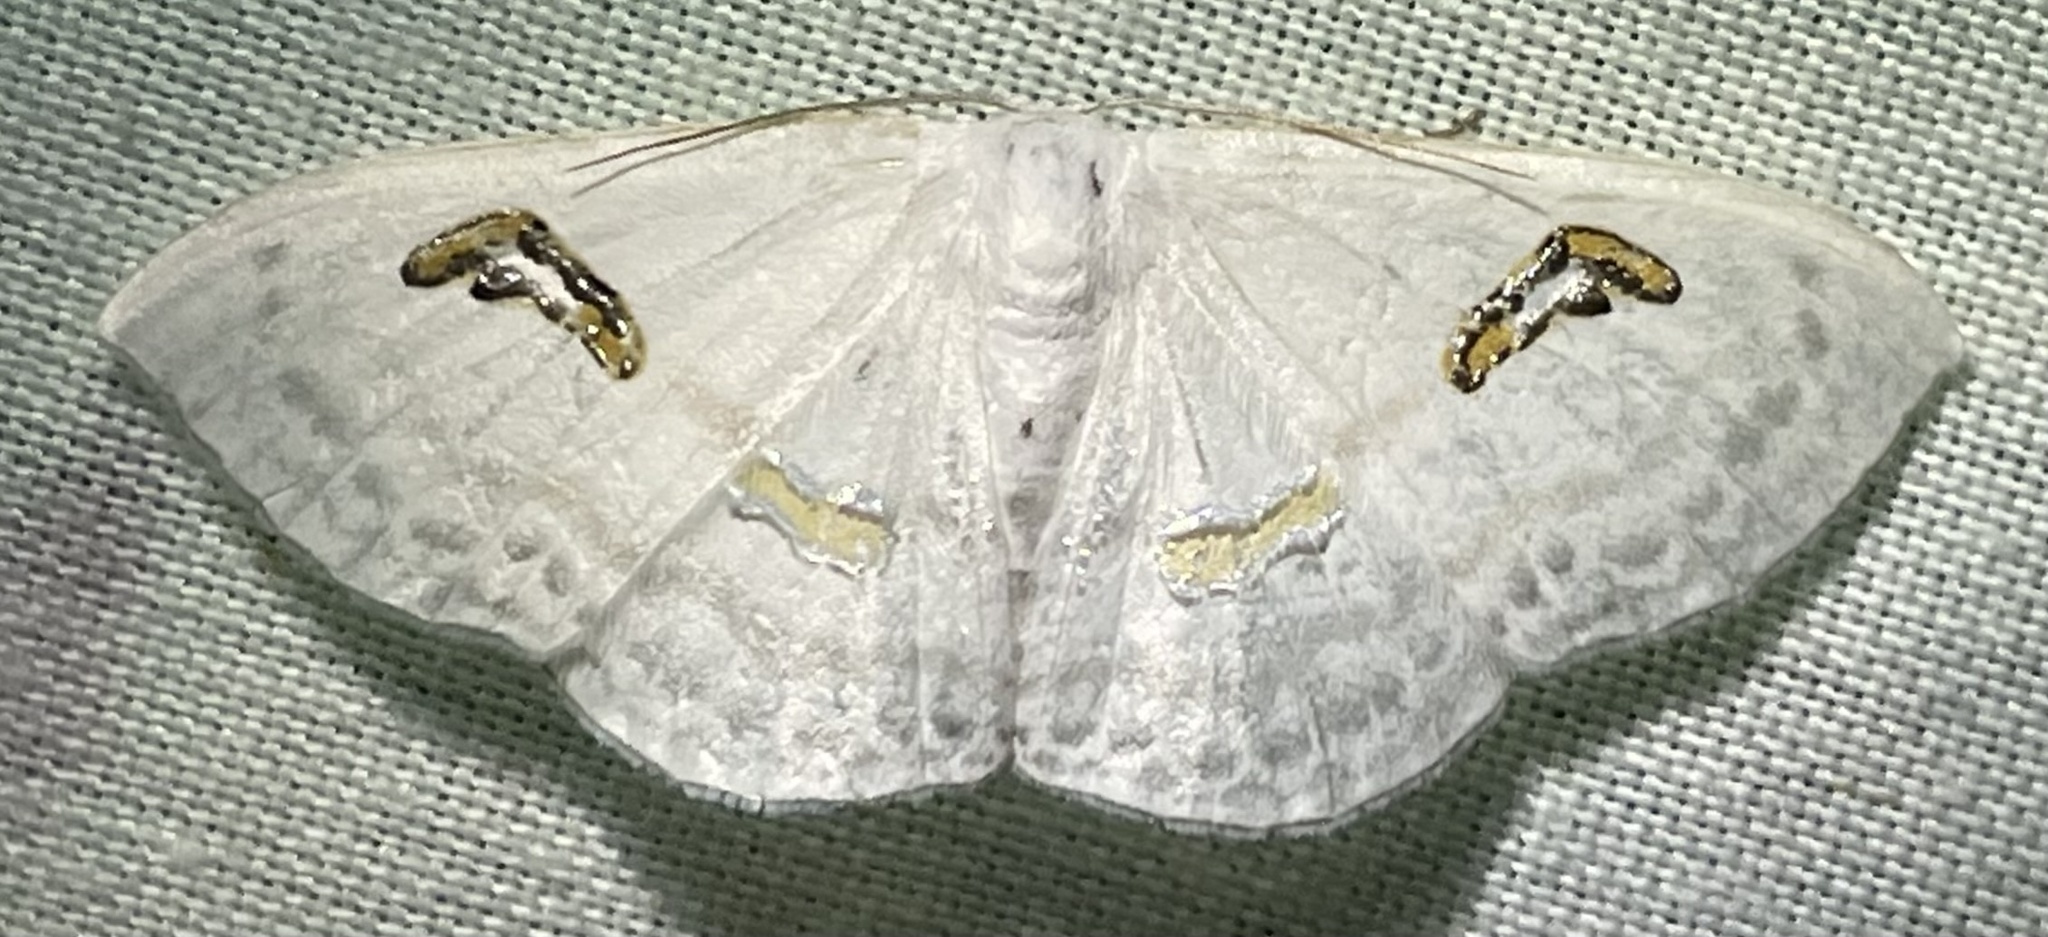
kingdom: Animalia
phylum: Arthropoda
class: Insecta
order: Lepidoptera
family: Geometridae
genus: Problepsis
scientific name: Problepsis digammata
